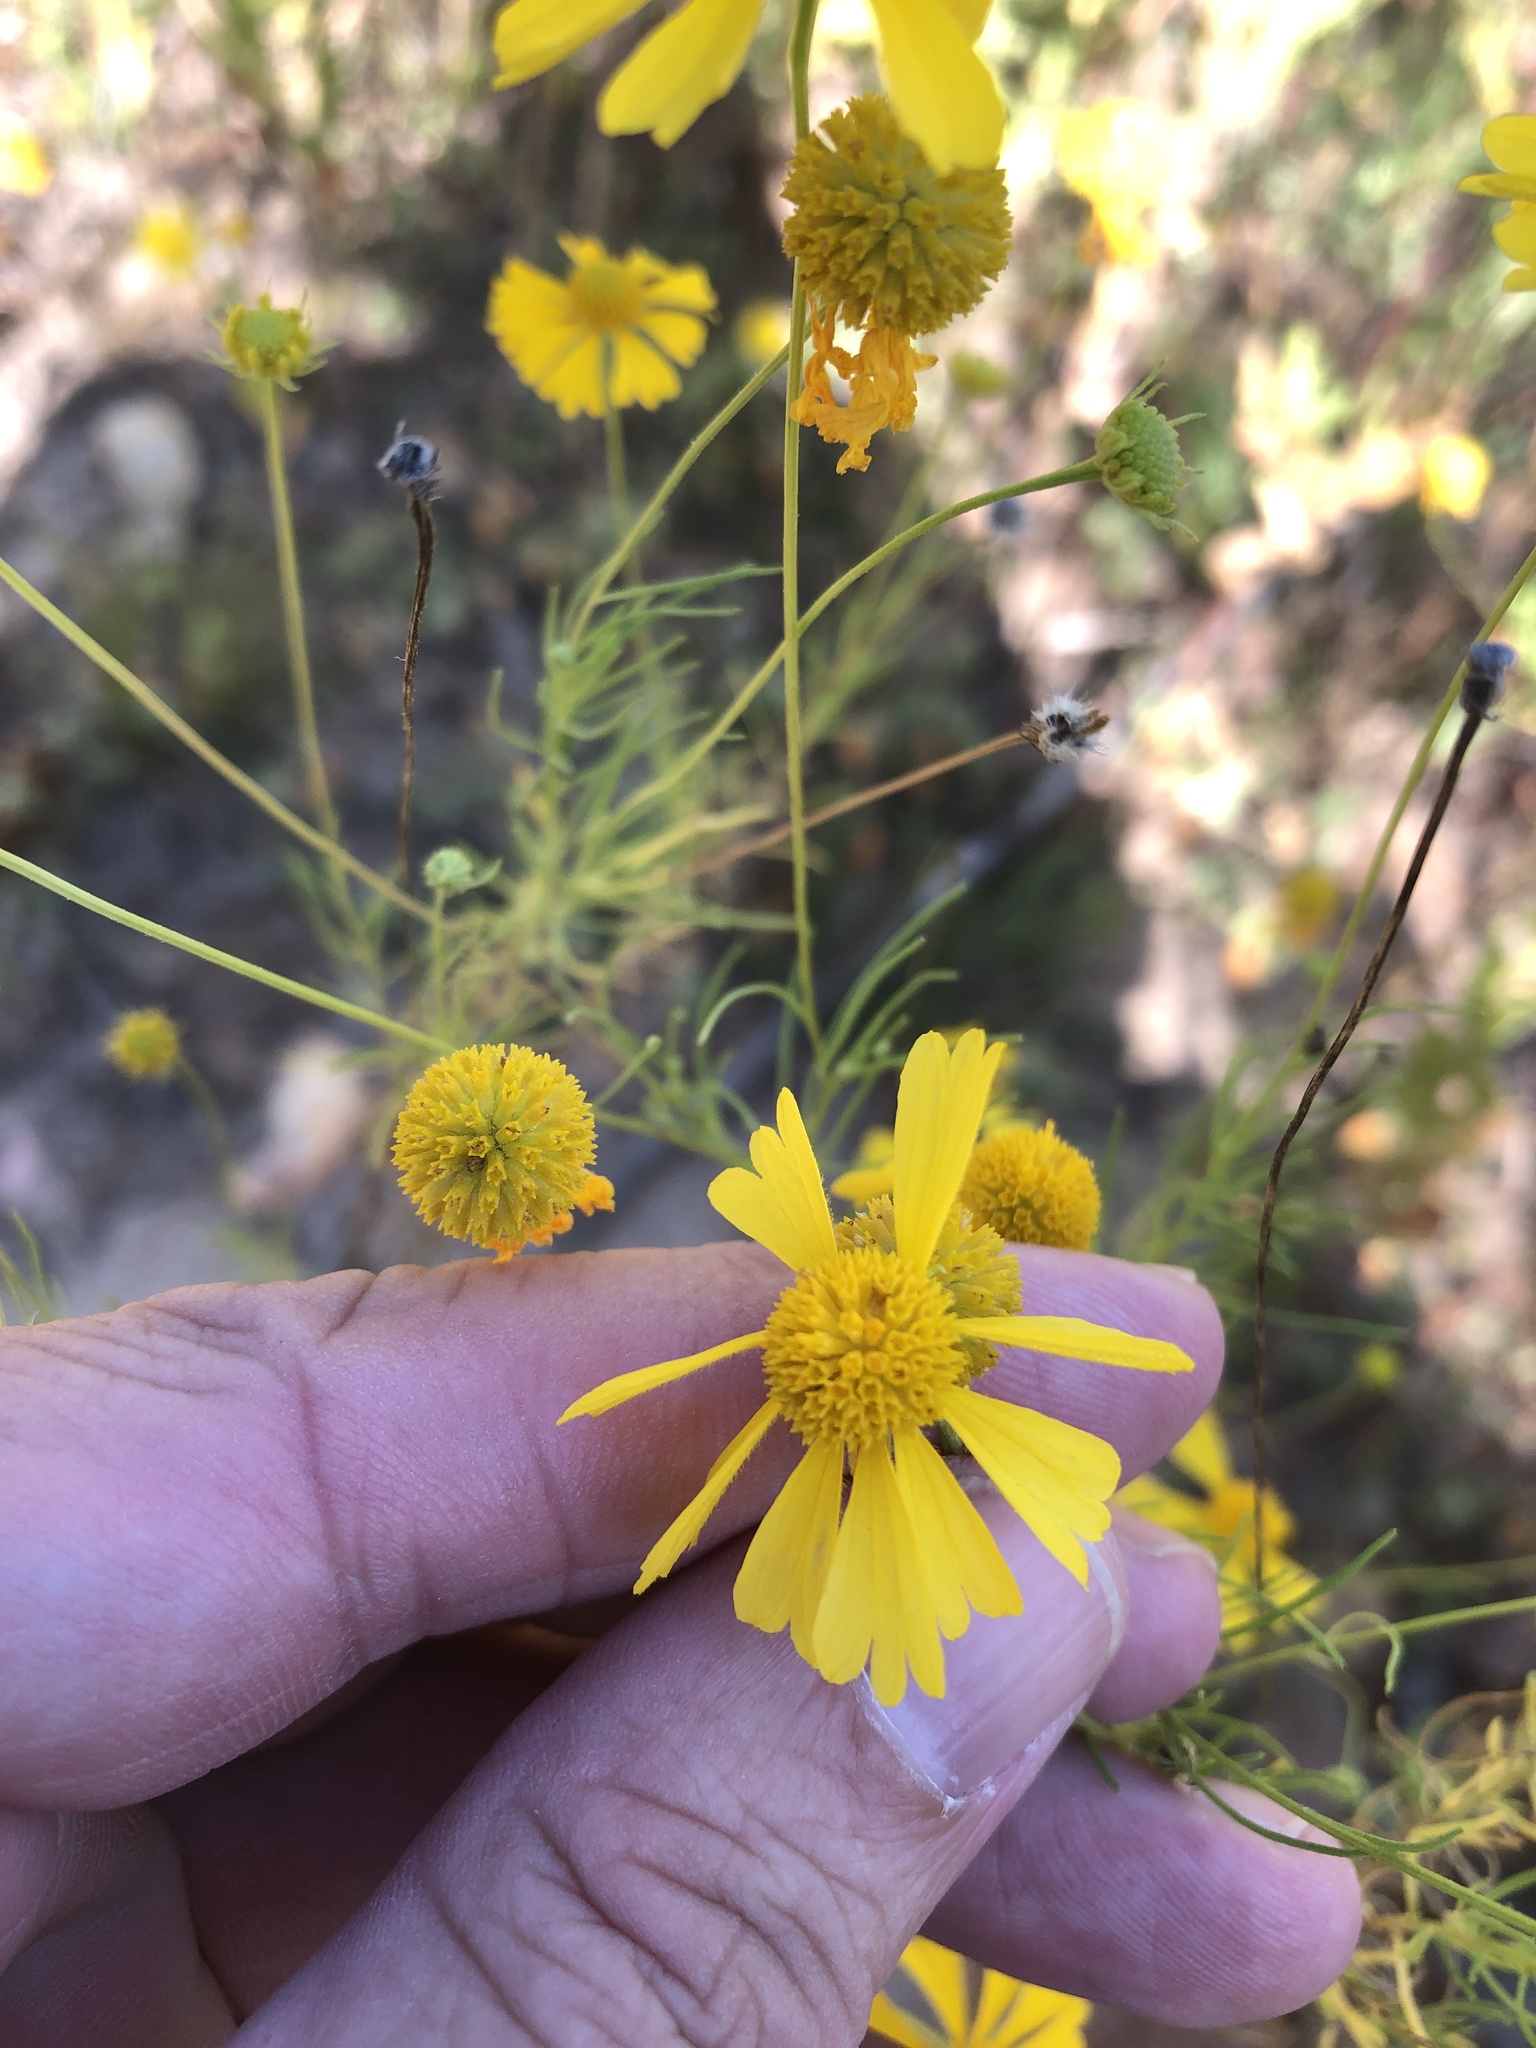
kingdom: Plantae
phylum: Tracheophyta
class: Magnoliopsida
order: Asterales
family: Asteraceae
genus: Helenium
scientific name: Helenium amarum
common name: Bitter sneezeweed
